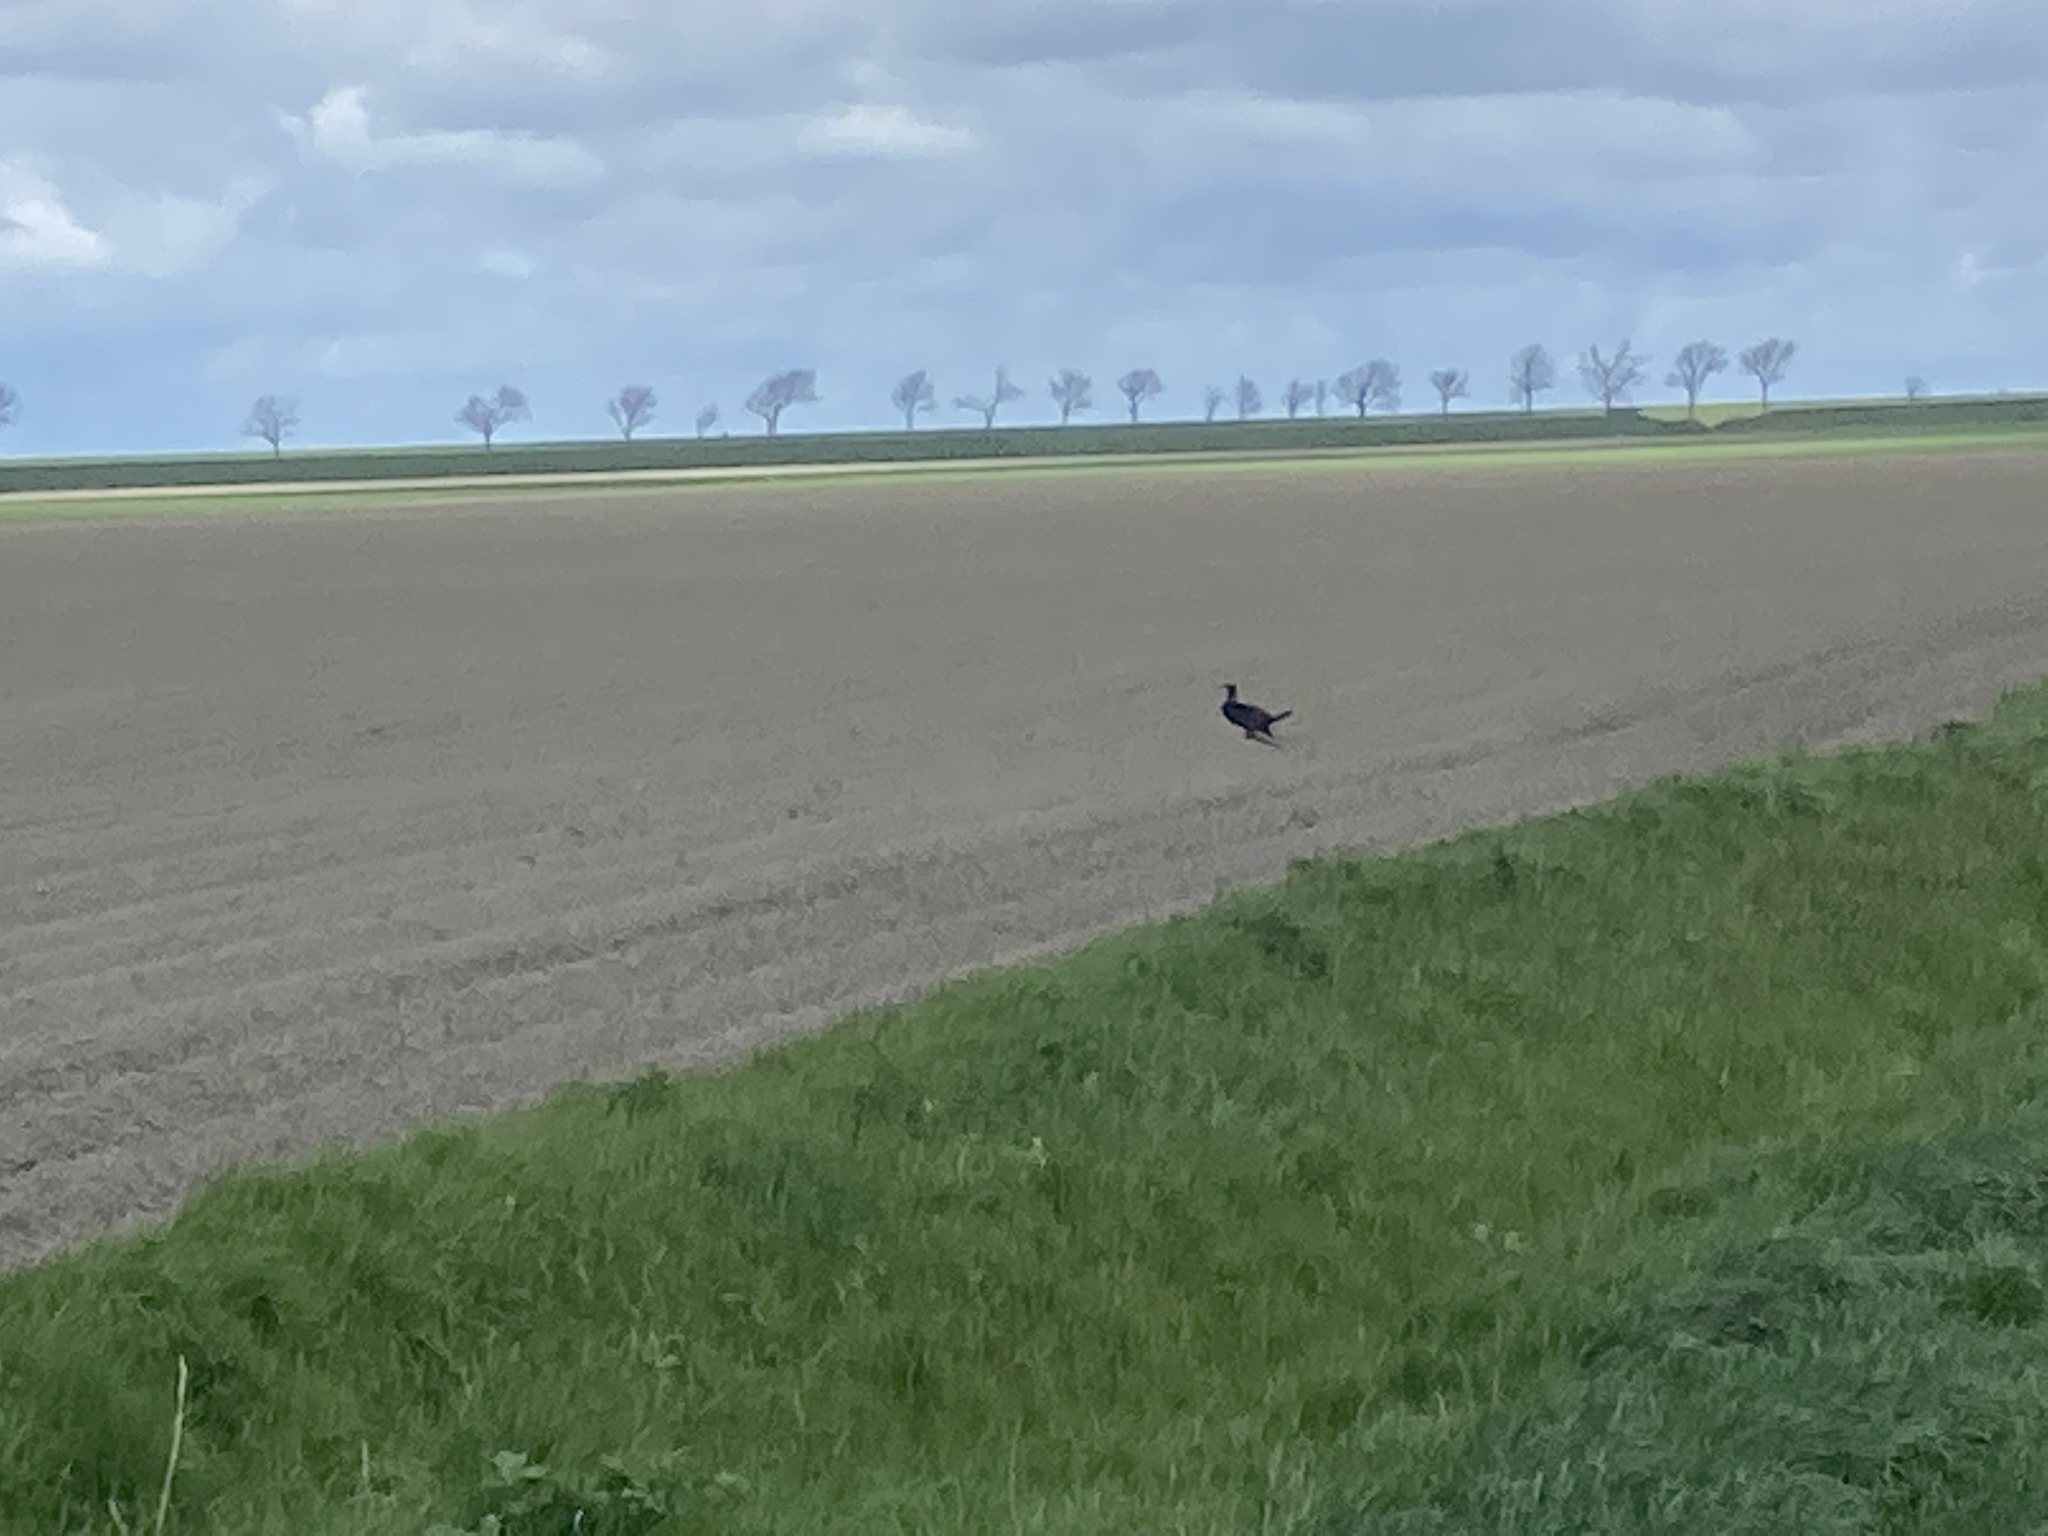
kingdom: Animalia
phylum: Chordata
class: Aves
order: Suliformes
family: Phalacrocoracidae
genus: Phalacrocorax
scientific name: Phalacrocorax carbo
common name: Great cormorant
